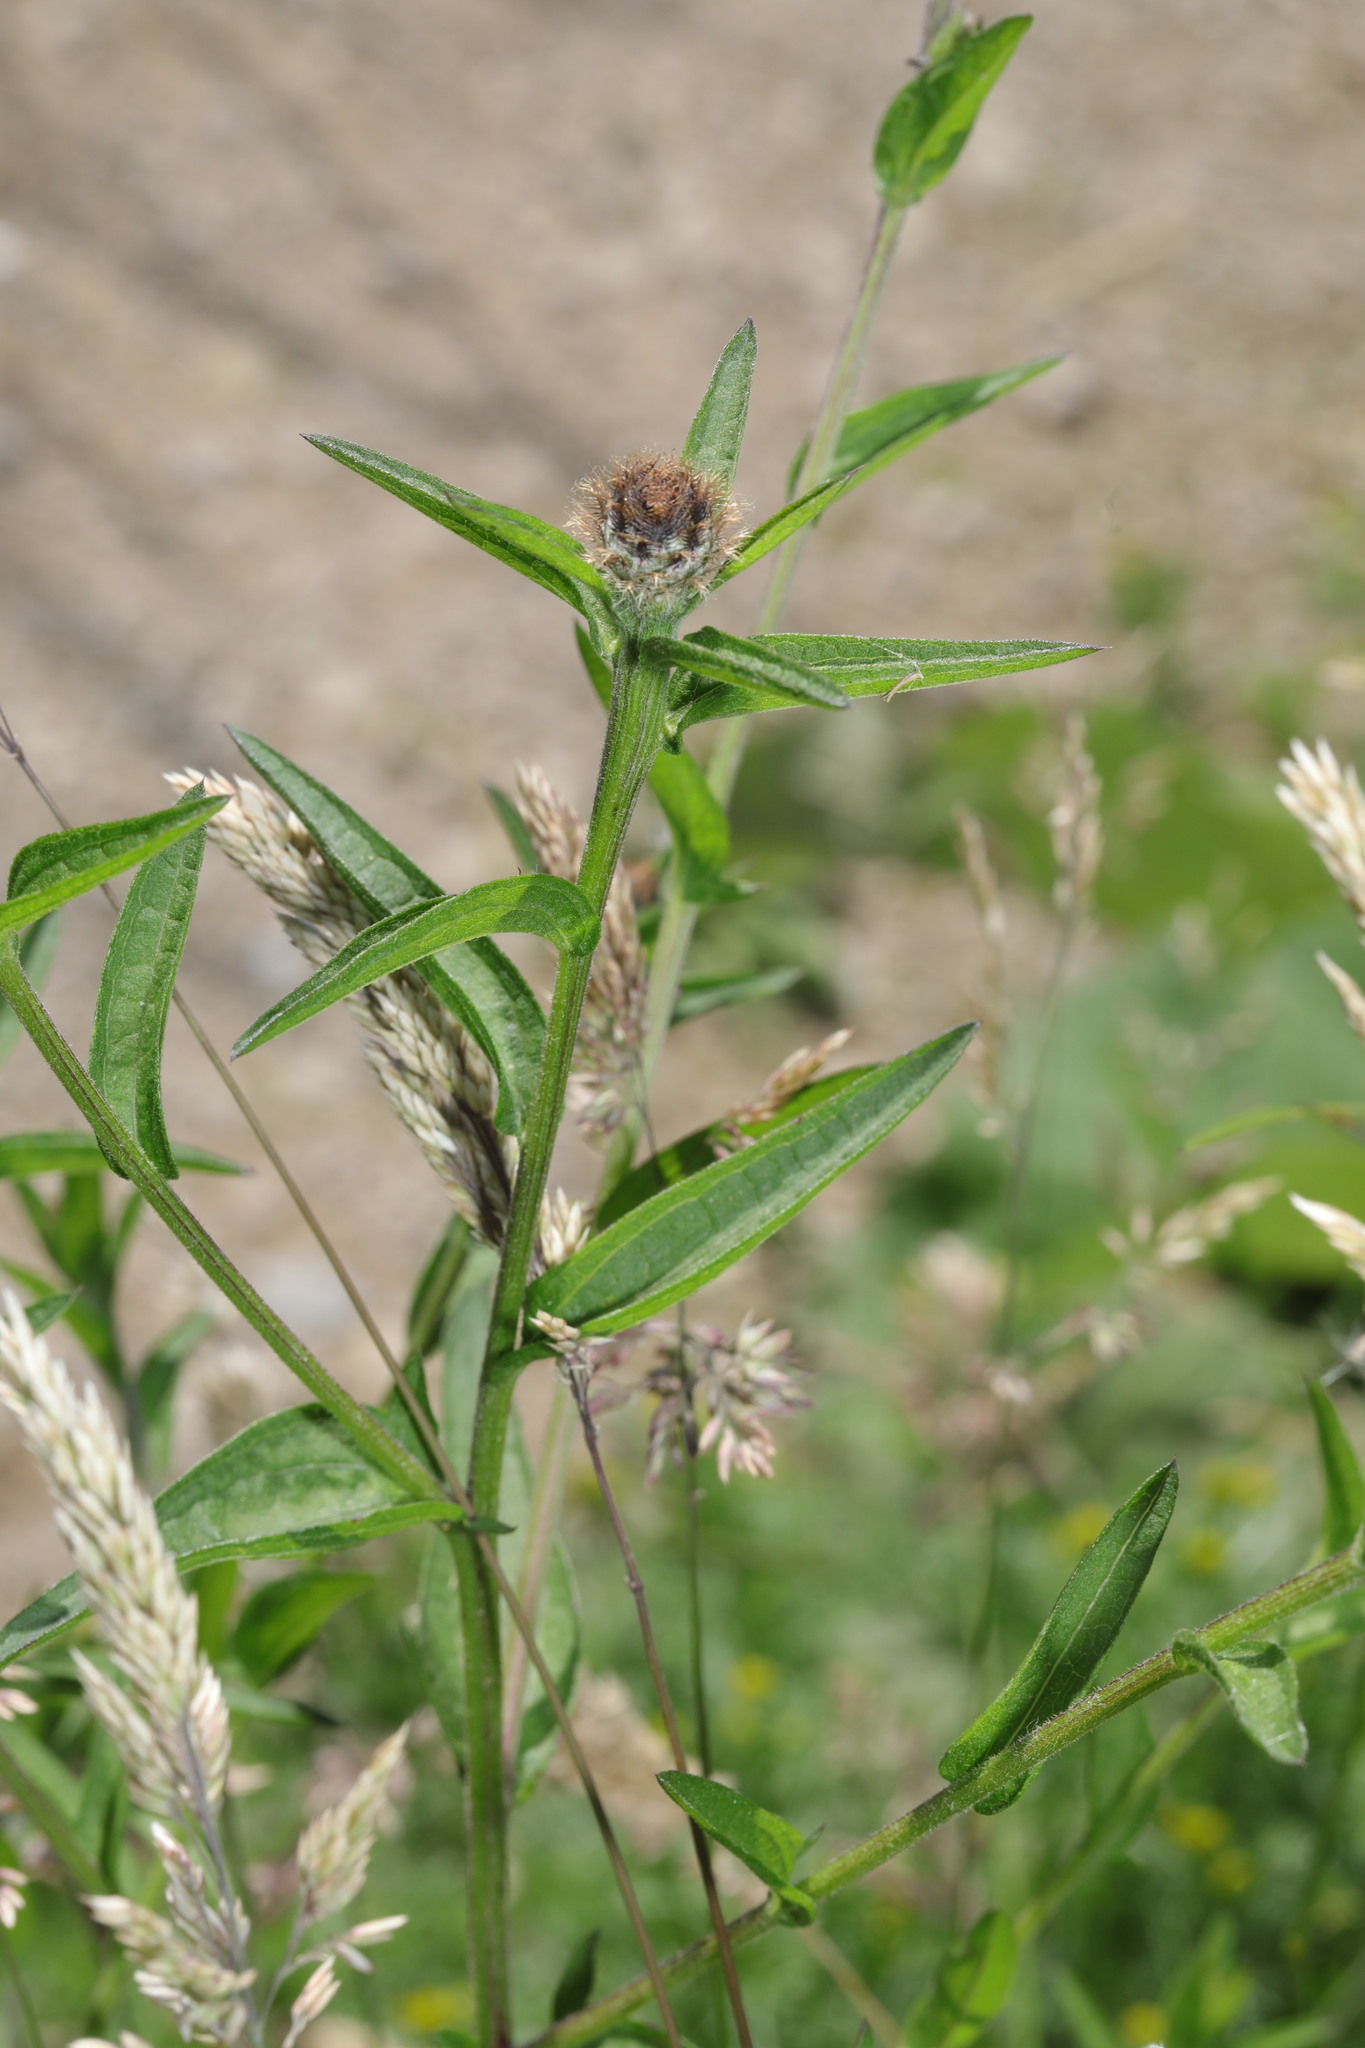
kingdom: Plantae
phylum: Tracheophyta
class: Magnoliopsida
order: Asterales
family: Asteraceae
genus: Centaurea
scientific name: Centaurea nigra
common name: Lesser knapweed
